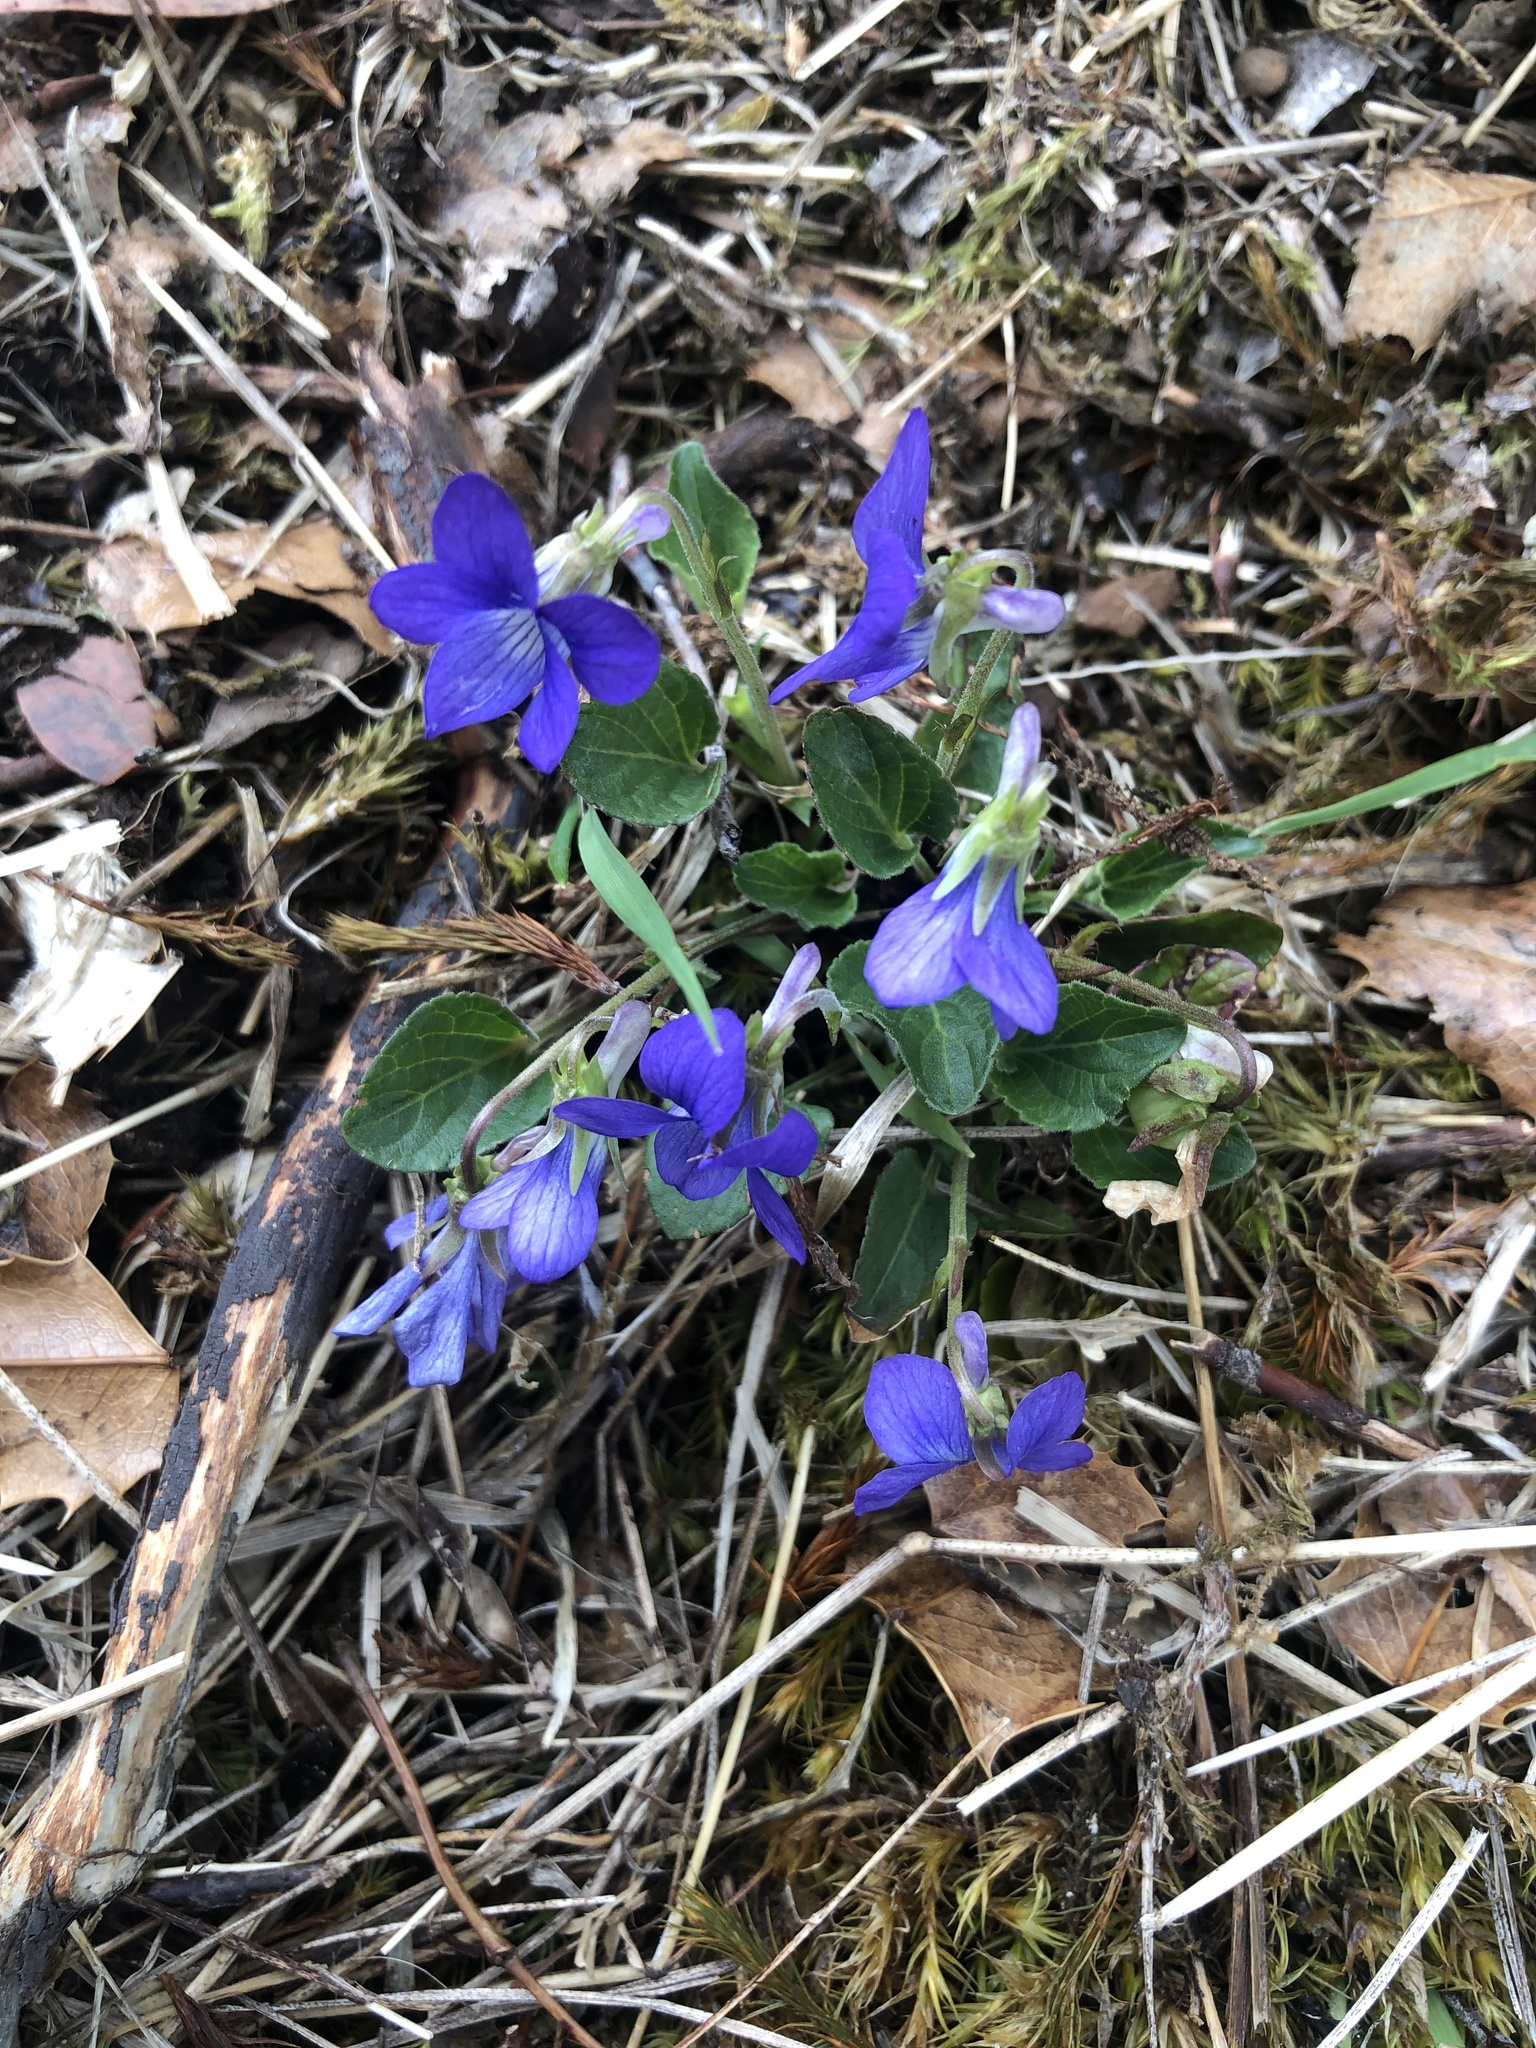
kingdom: Plantae
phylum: Tracheophyta
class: Magnoliopsida
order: Malpighiales
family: Violaceae
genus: Viola
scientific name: Viola adunca
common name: Sand violet
